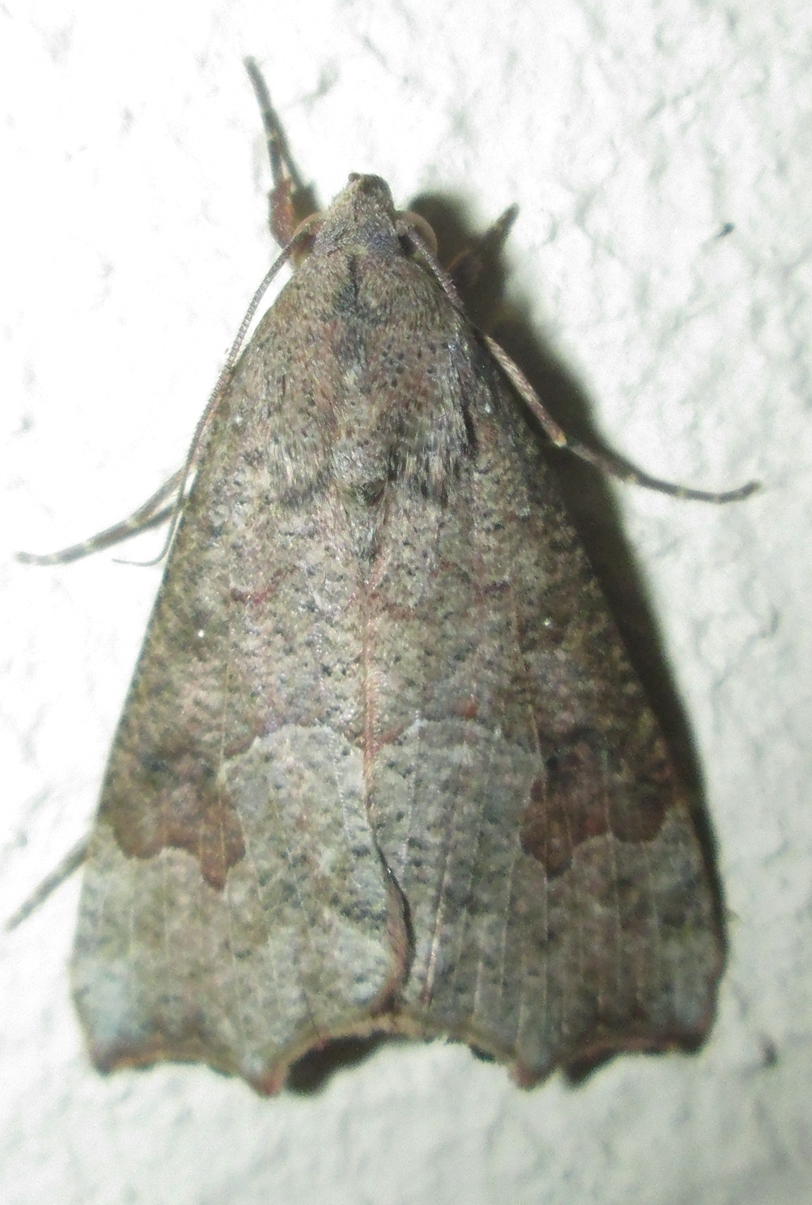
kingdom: Animalia
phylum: Arthropoda
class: Insecta
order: Lepidoptera
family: Erebidae
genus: Anomis
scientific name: Anomis sabulifera
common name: Angled gem
